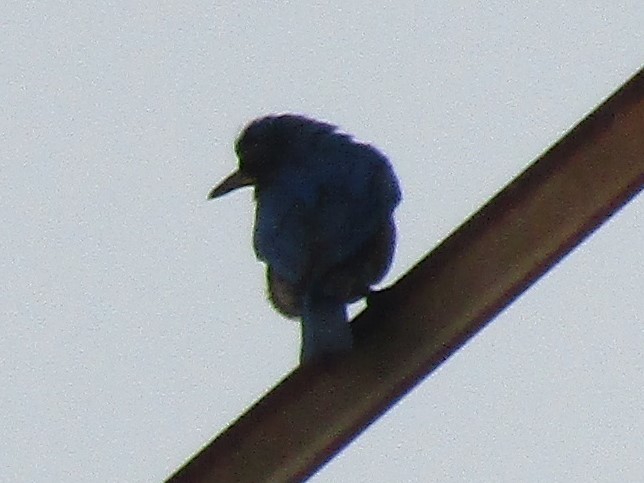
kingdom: Animalia
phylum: Chordata
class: Aves
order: Passeriformes
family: Turdidae
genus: Sialia
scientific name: Sialia sialis
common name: Eastern bluebird
